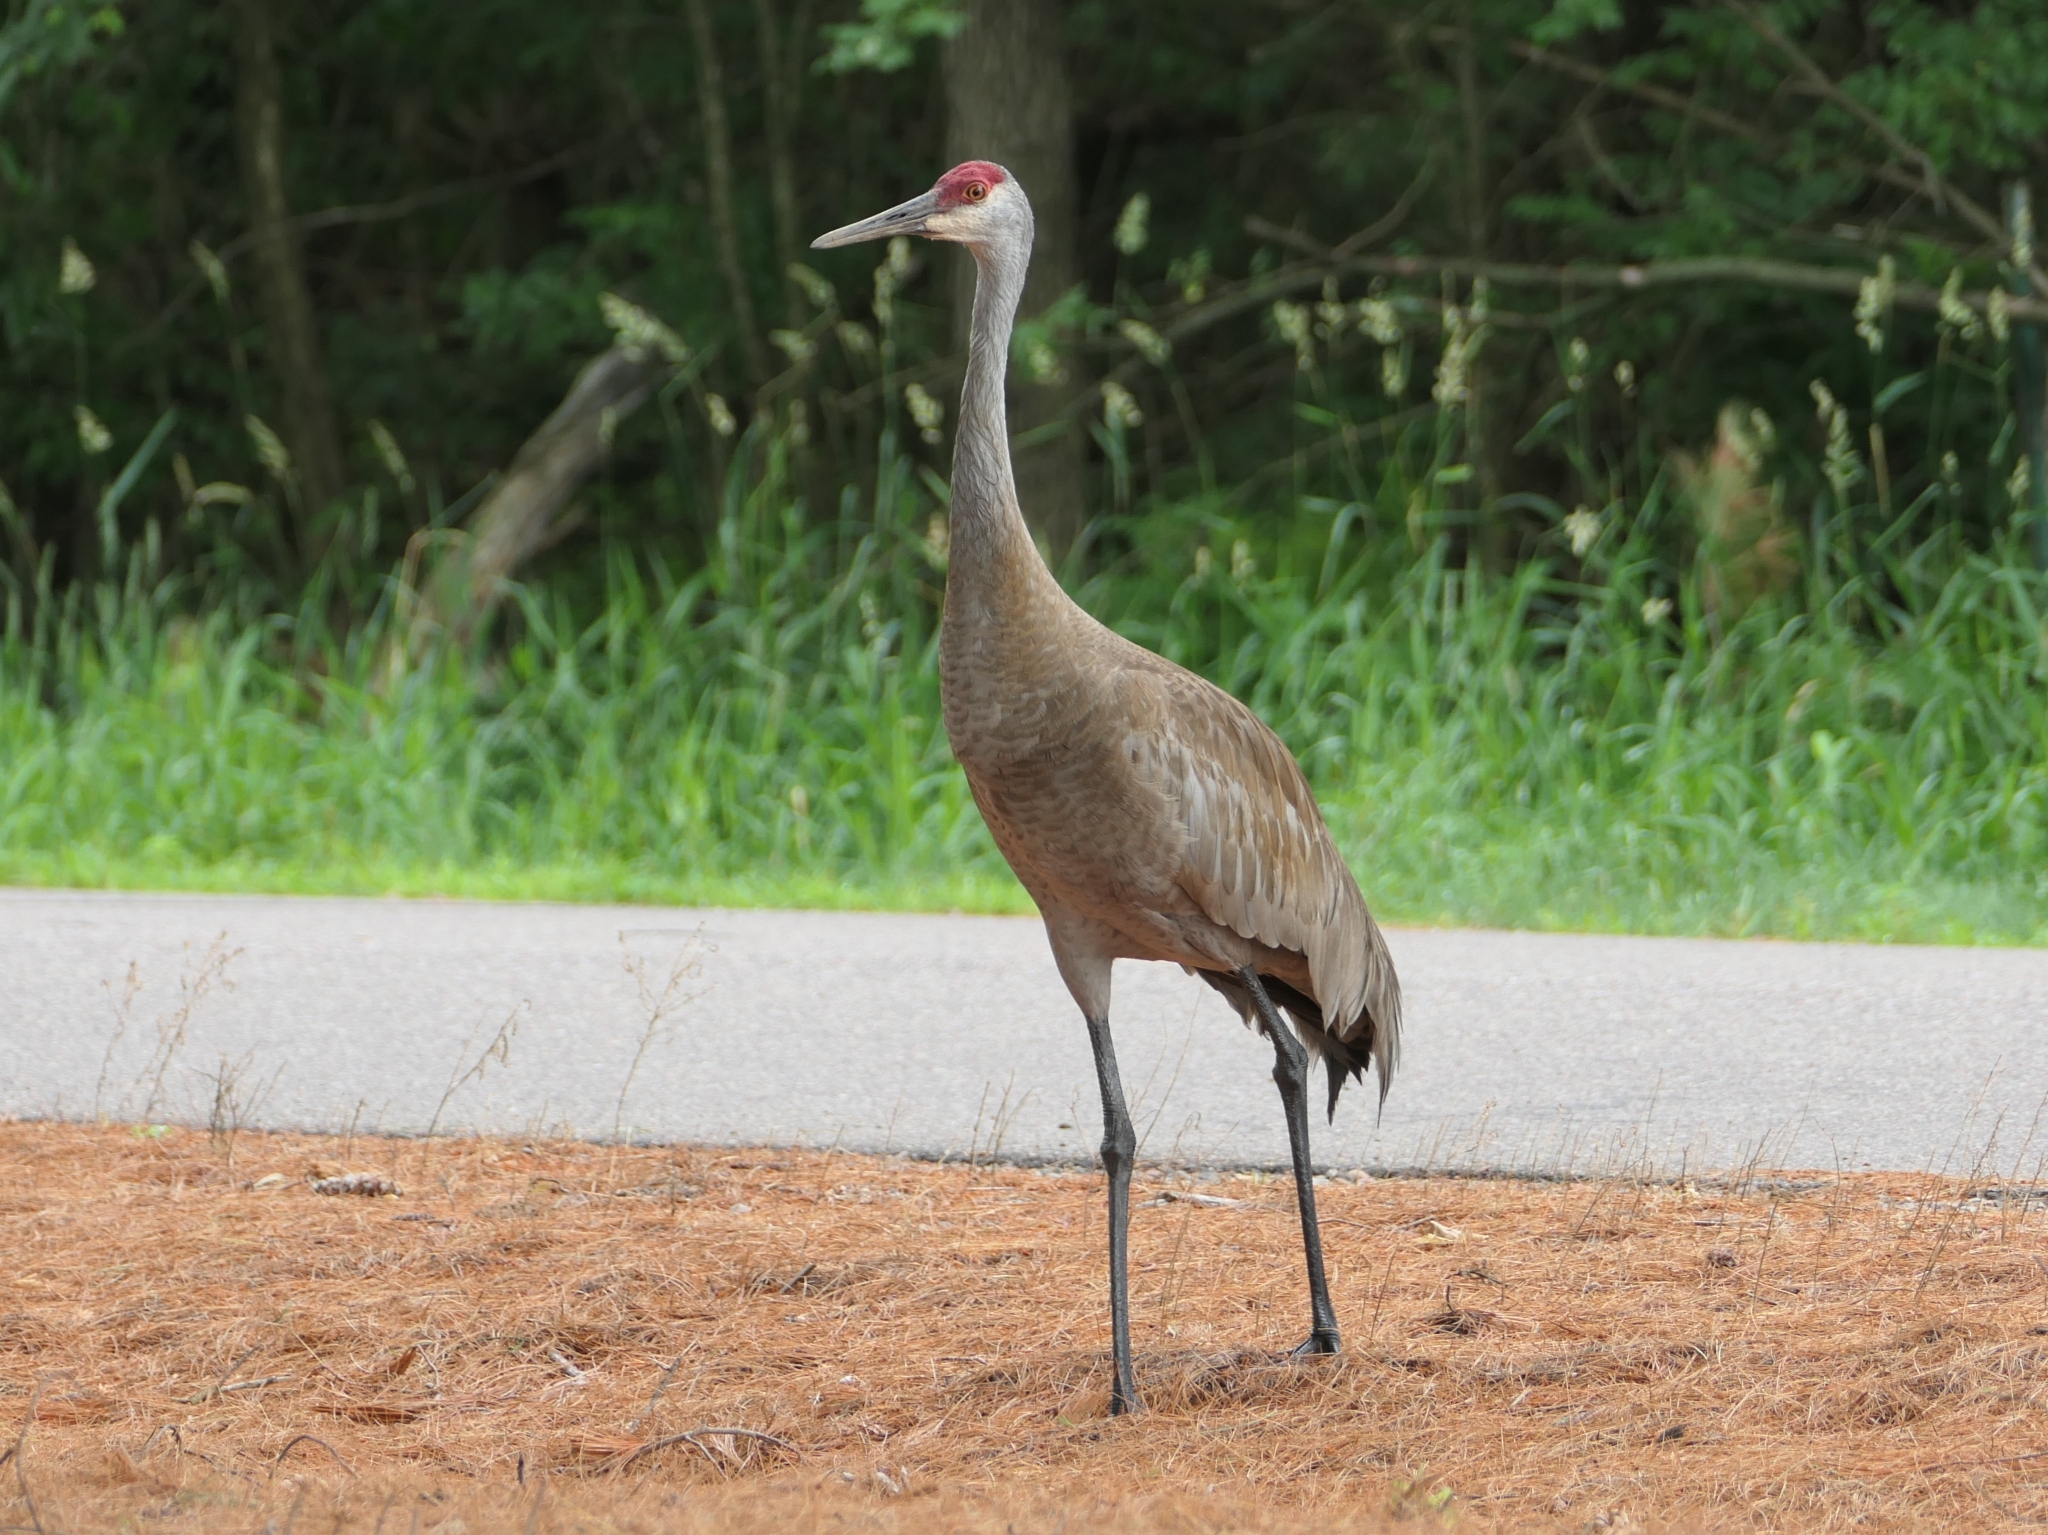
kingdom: Animalia
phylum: Chordata
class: Aves
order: Gruiformes
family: Gruidae
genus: Grus
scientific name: Grus canadensis
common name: Sandhill crane
